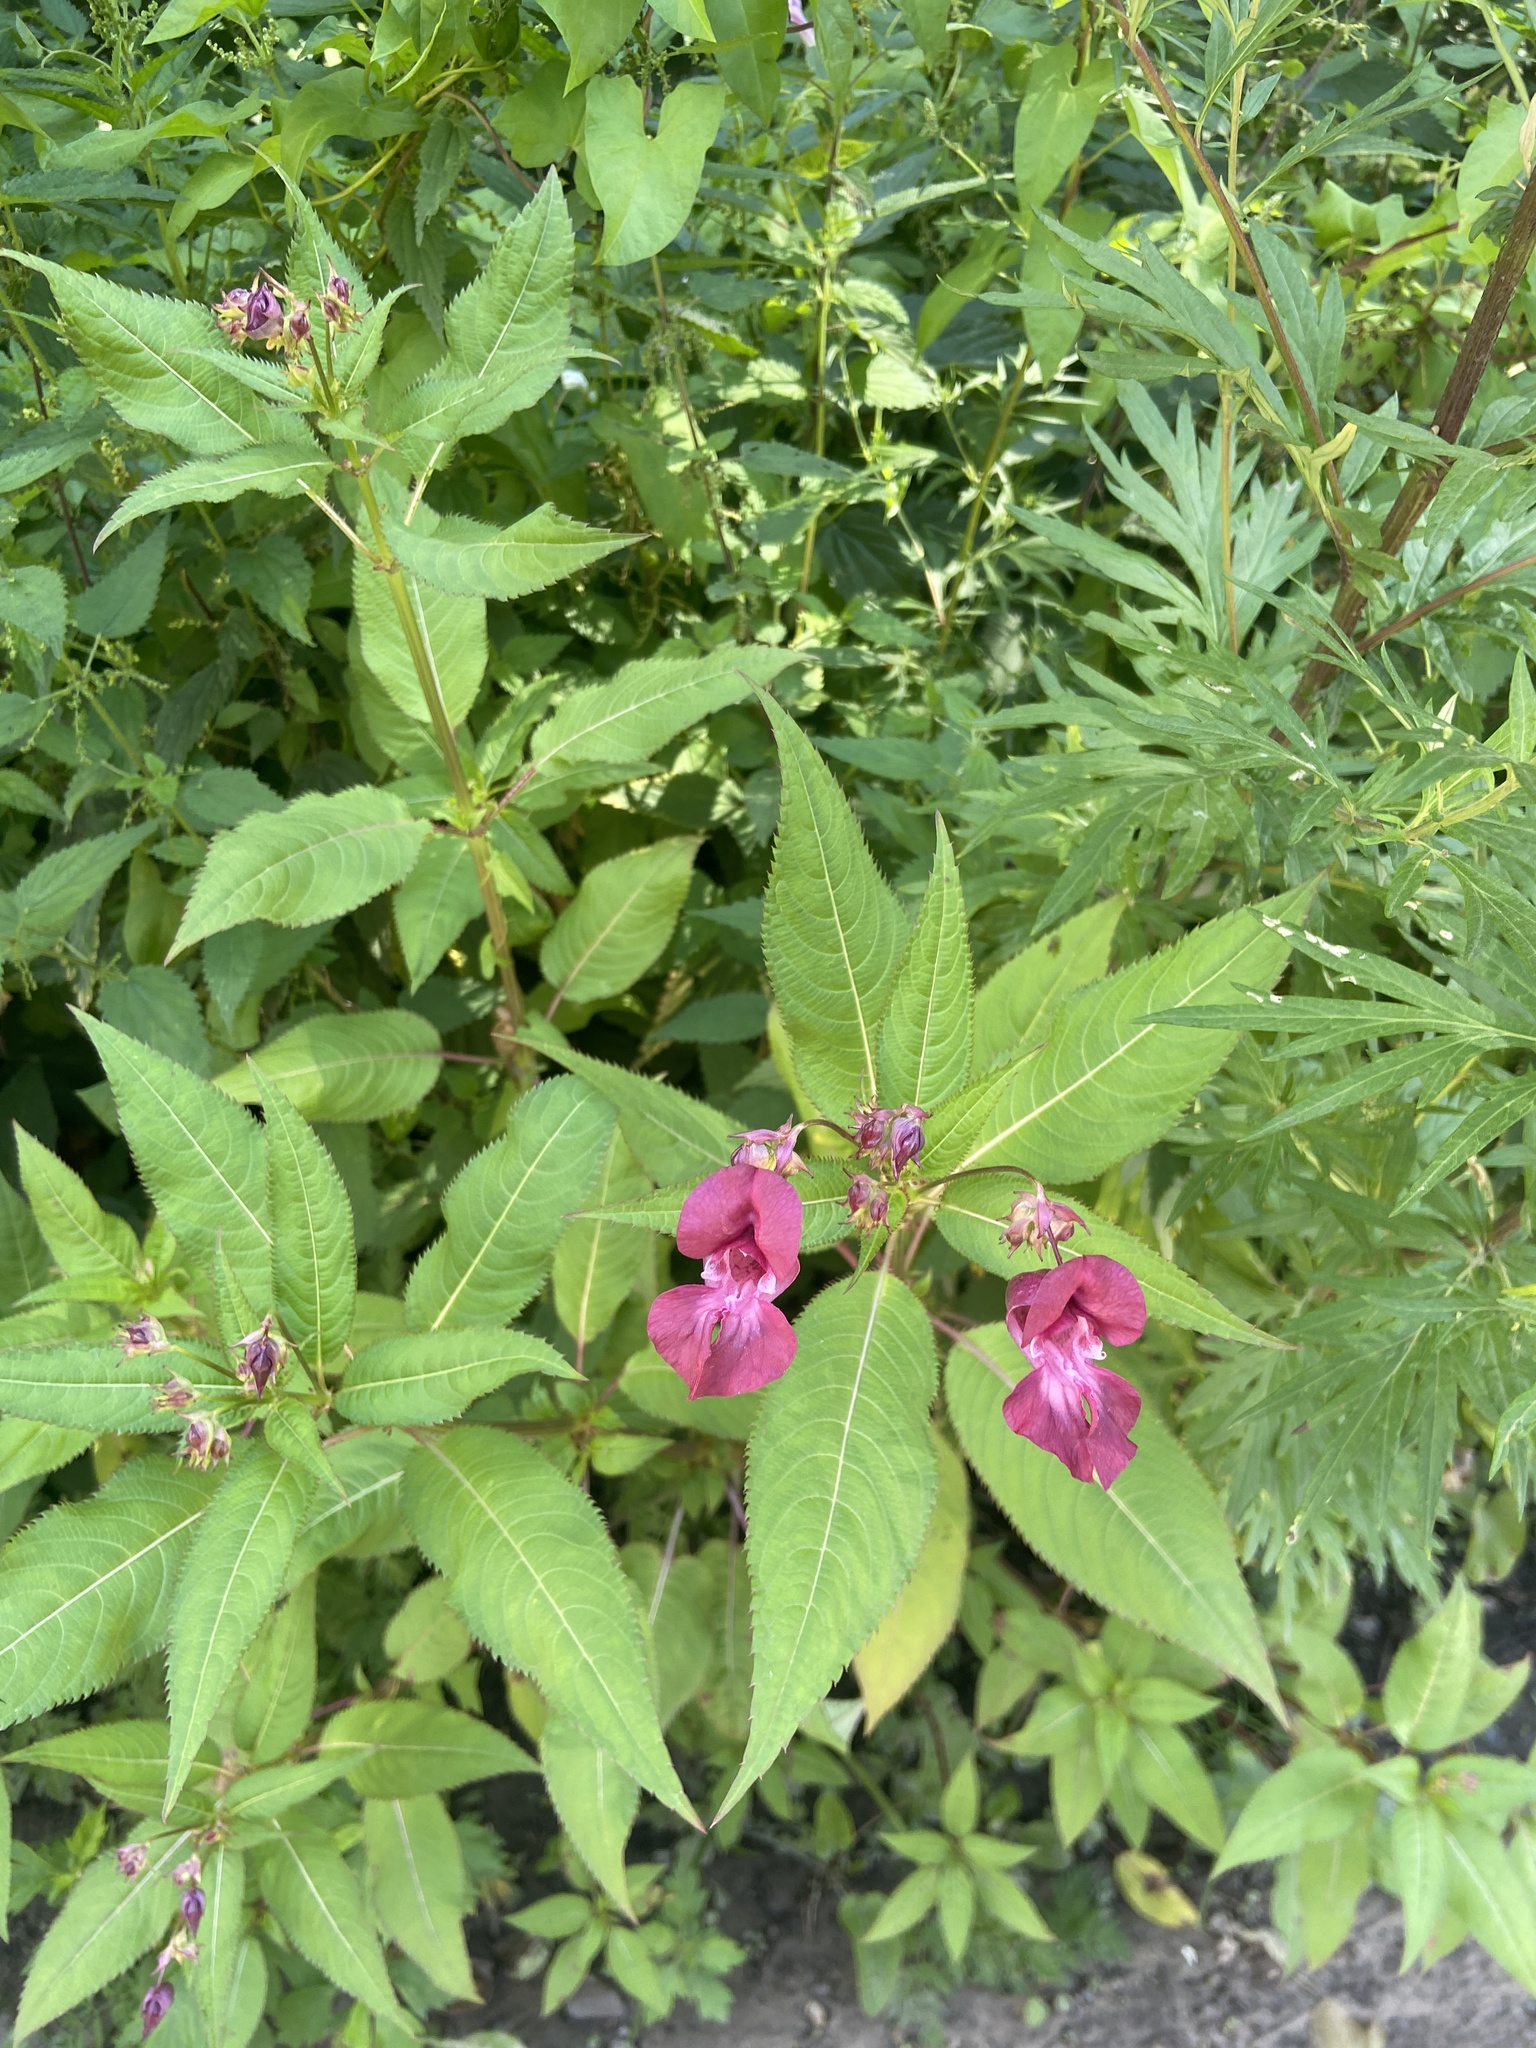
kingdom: Plantae
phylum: Tracheophyta
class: Magnoliopsida
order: Ericales
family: Balsaminaceae
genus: Impatiens
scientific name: Impatiens glandulifera
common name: Himalayan balsam
